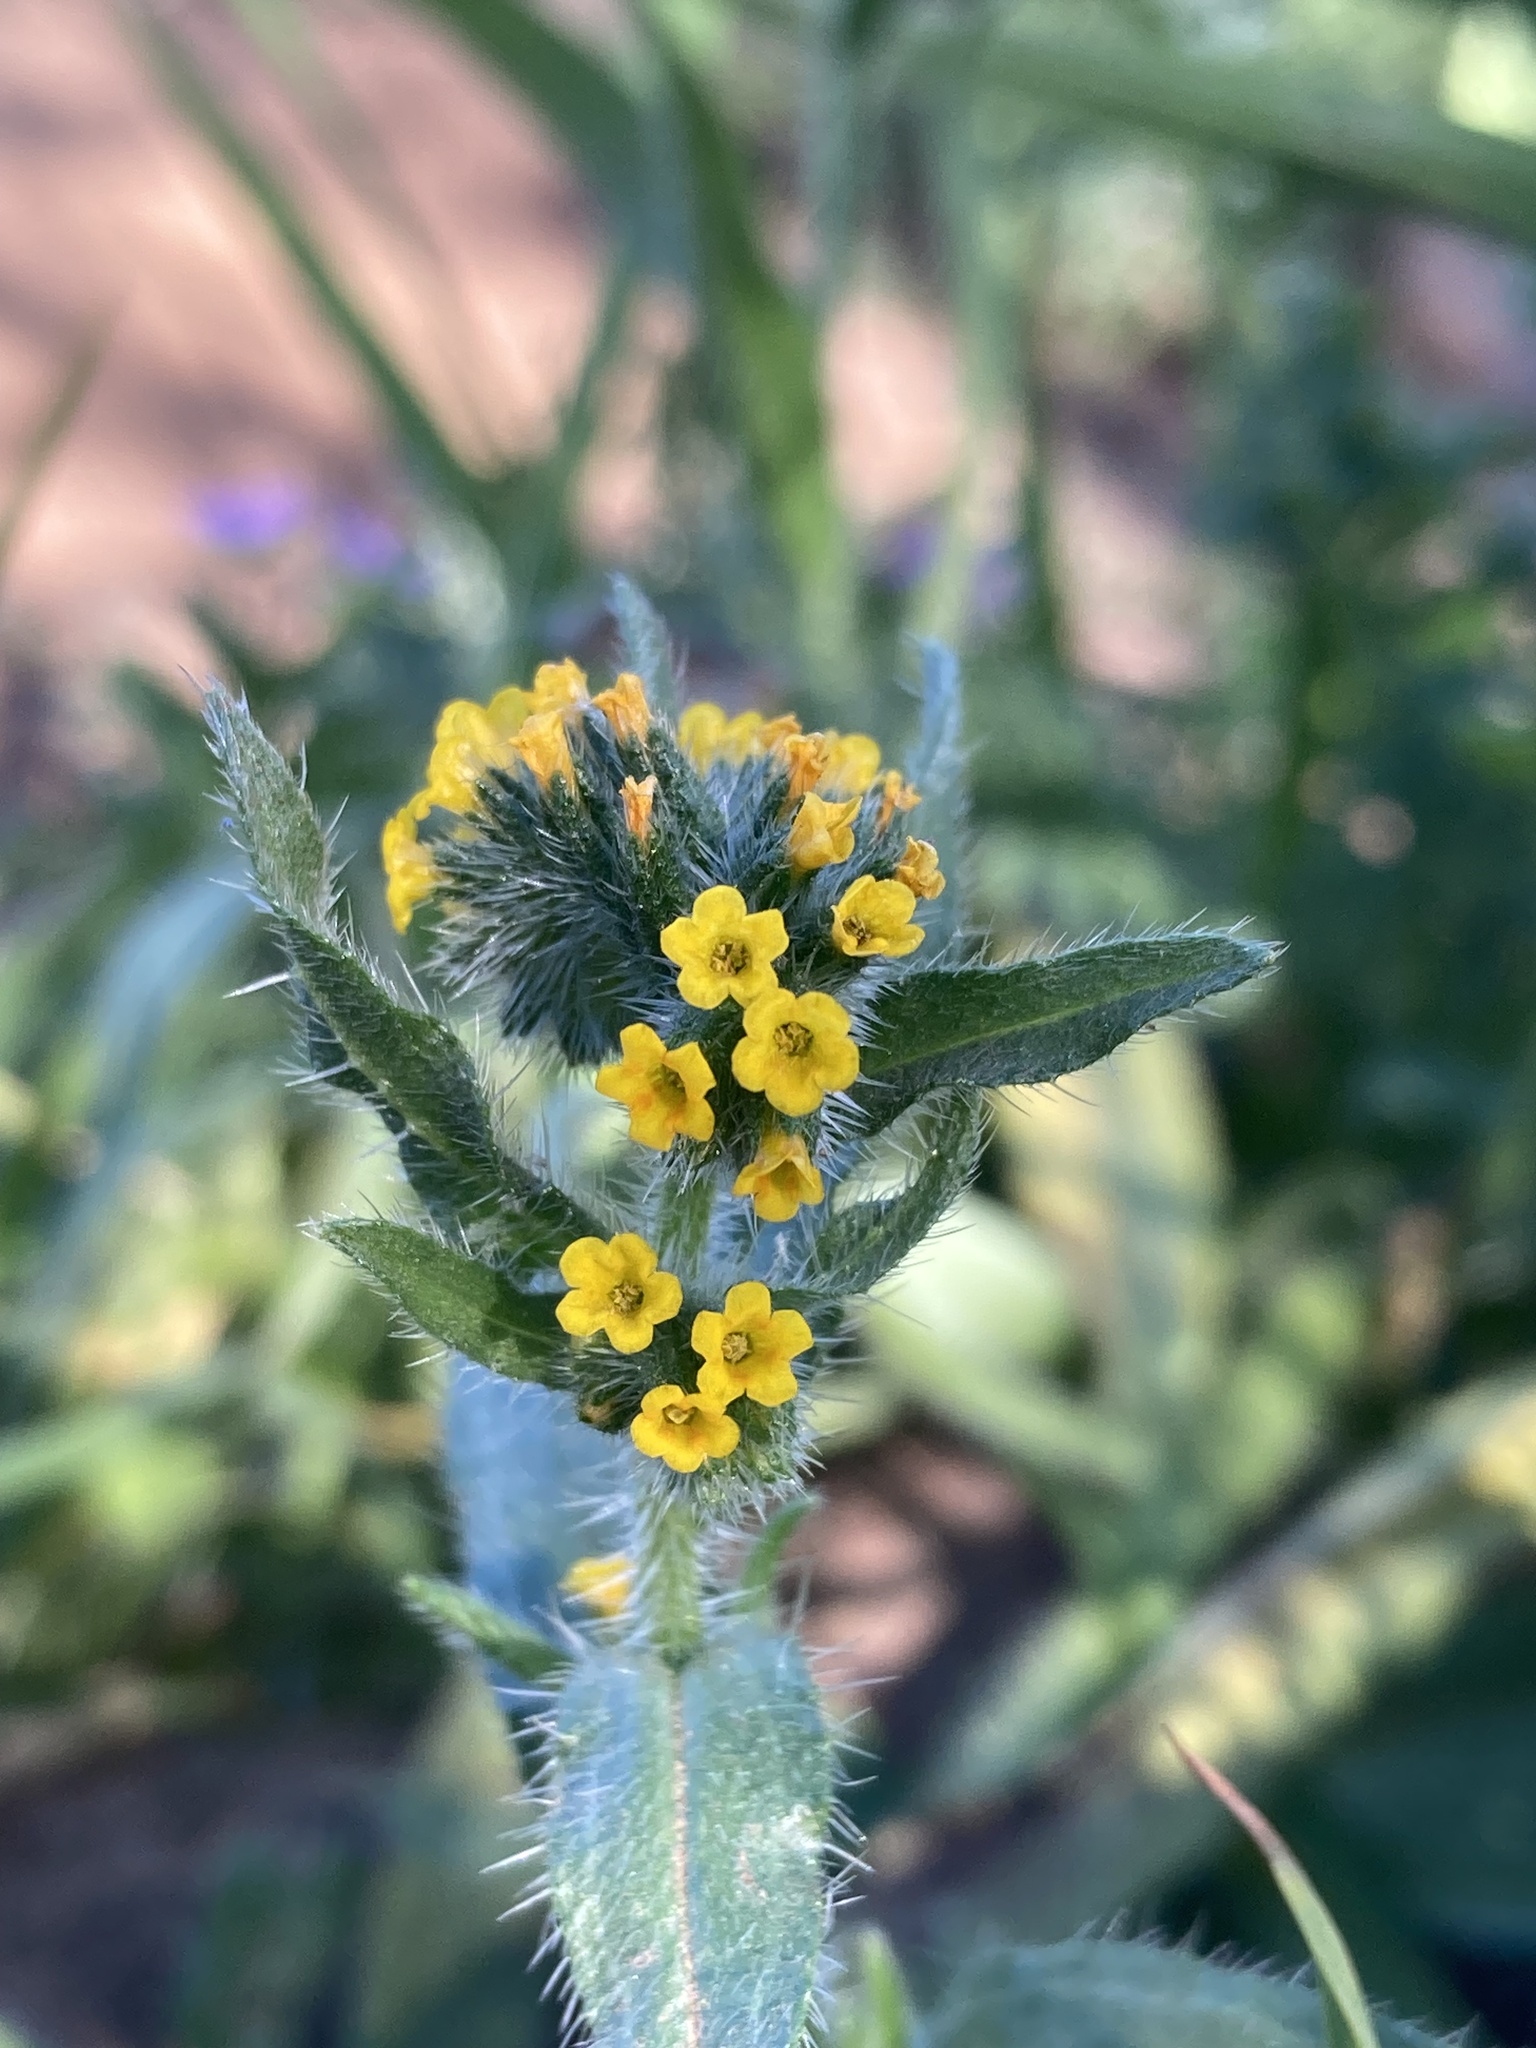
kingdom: Plantae
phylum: Tracheophyta
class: Magnoliopsida
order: Boraginales
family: Boraginaceae
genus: Amsinckia
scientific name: Amsinckia calycina
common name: Hairy fiddleneck
